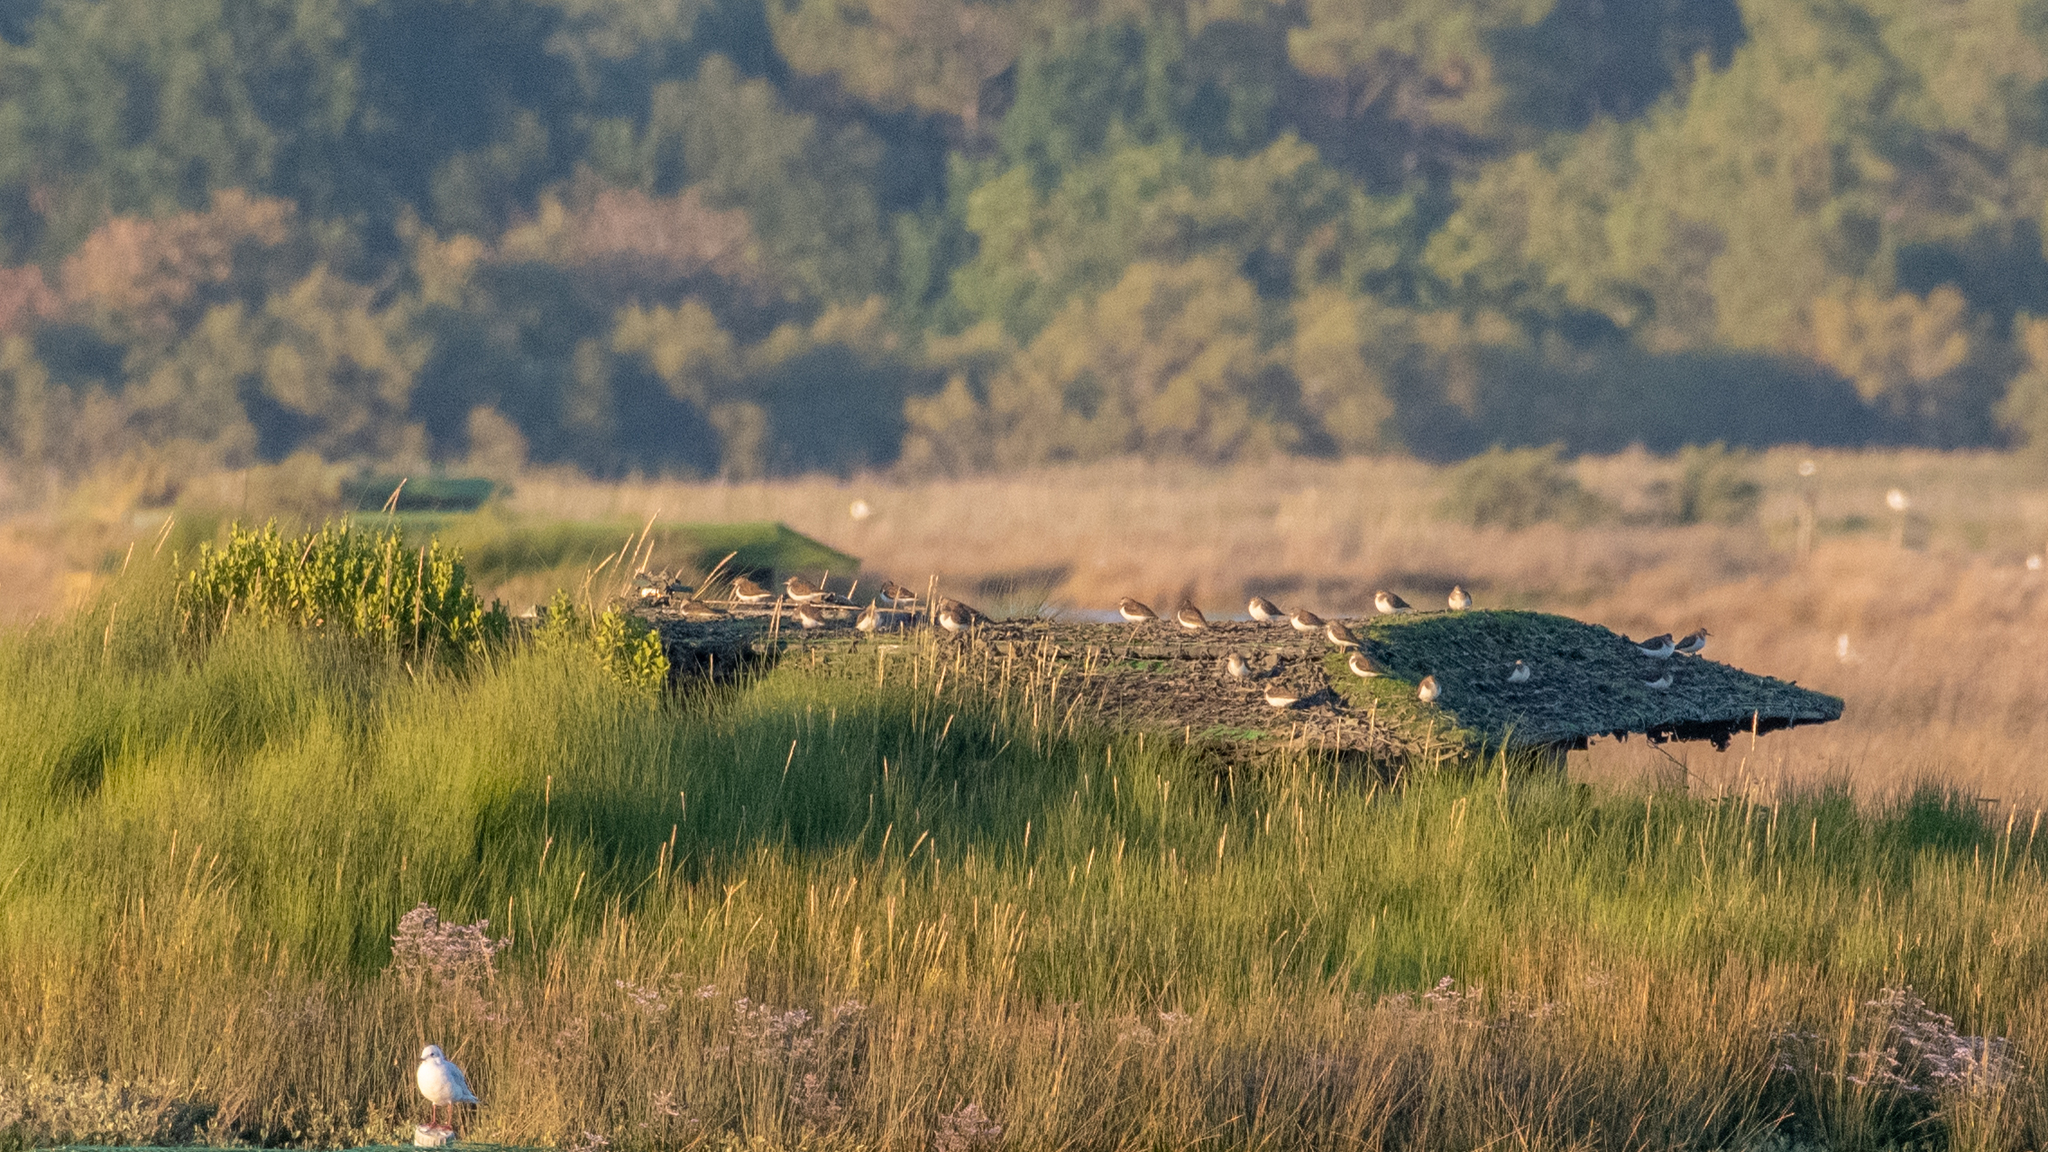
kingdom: Animalia
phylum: Chordata
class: Aves
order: Charadriiformes
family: Scolopacidae
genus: Actitis
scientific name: Actitis hypoleucos
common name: Common sandpiper
